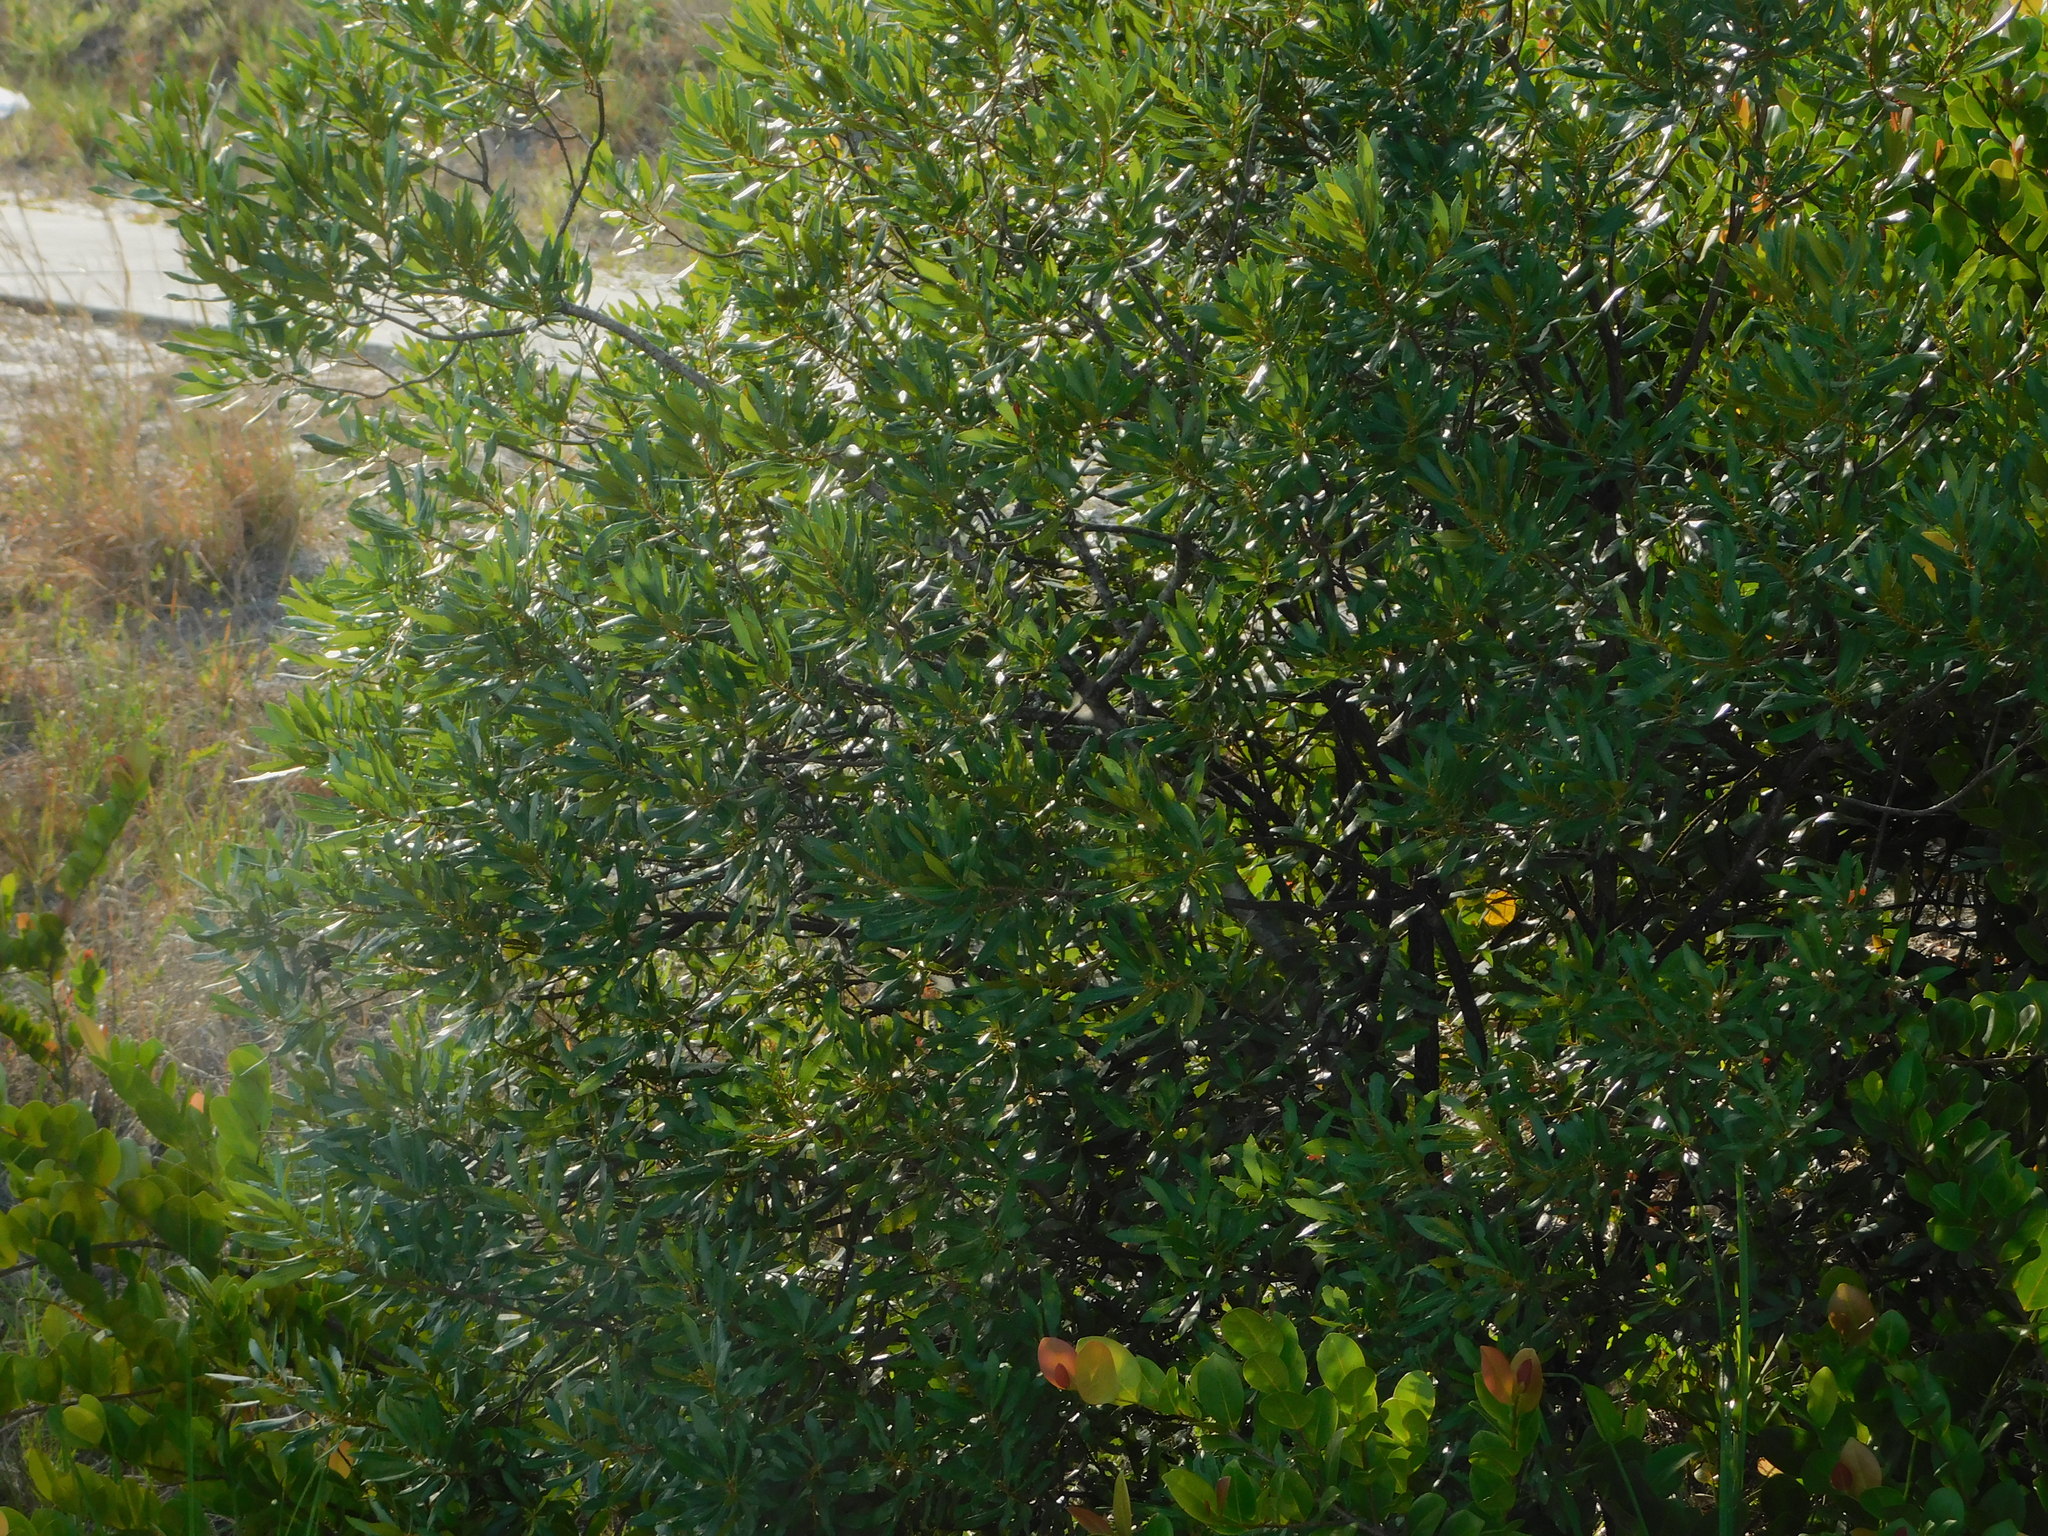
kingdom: Plantae
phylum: Tracheophyta
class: Magnoliopsida
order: Fagales
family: Myricaceae
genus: Morella
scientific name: Morella cerifera
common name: Wax myrtle
